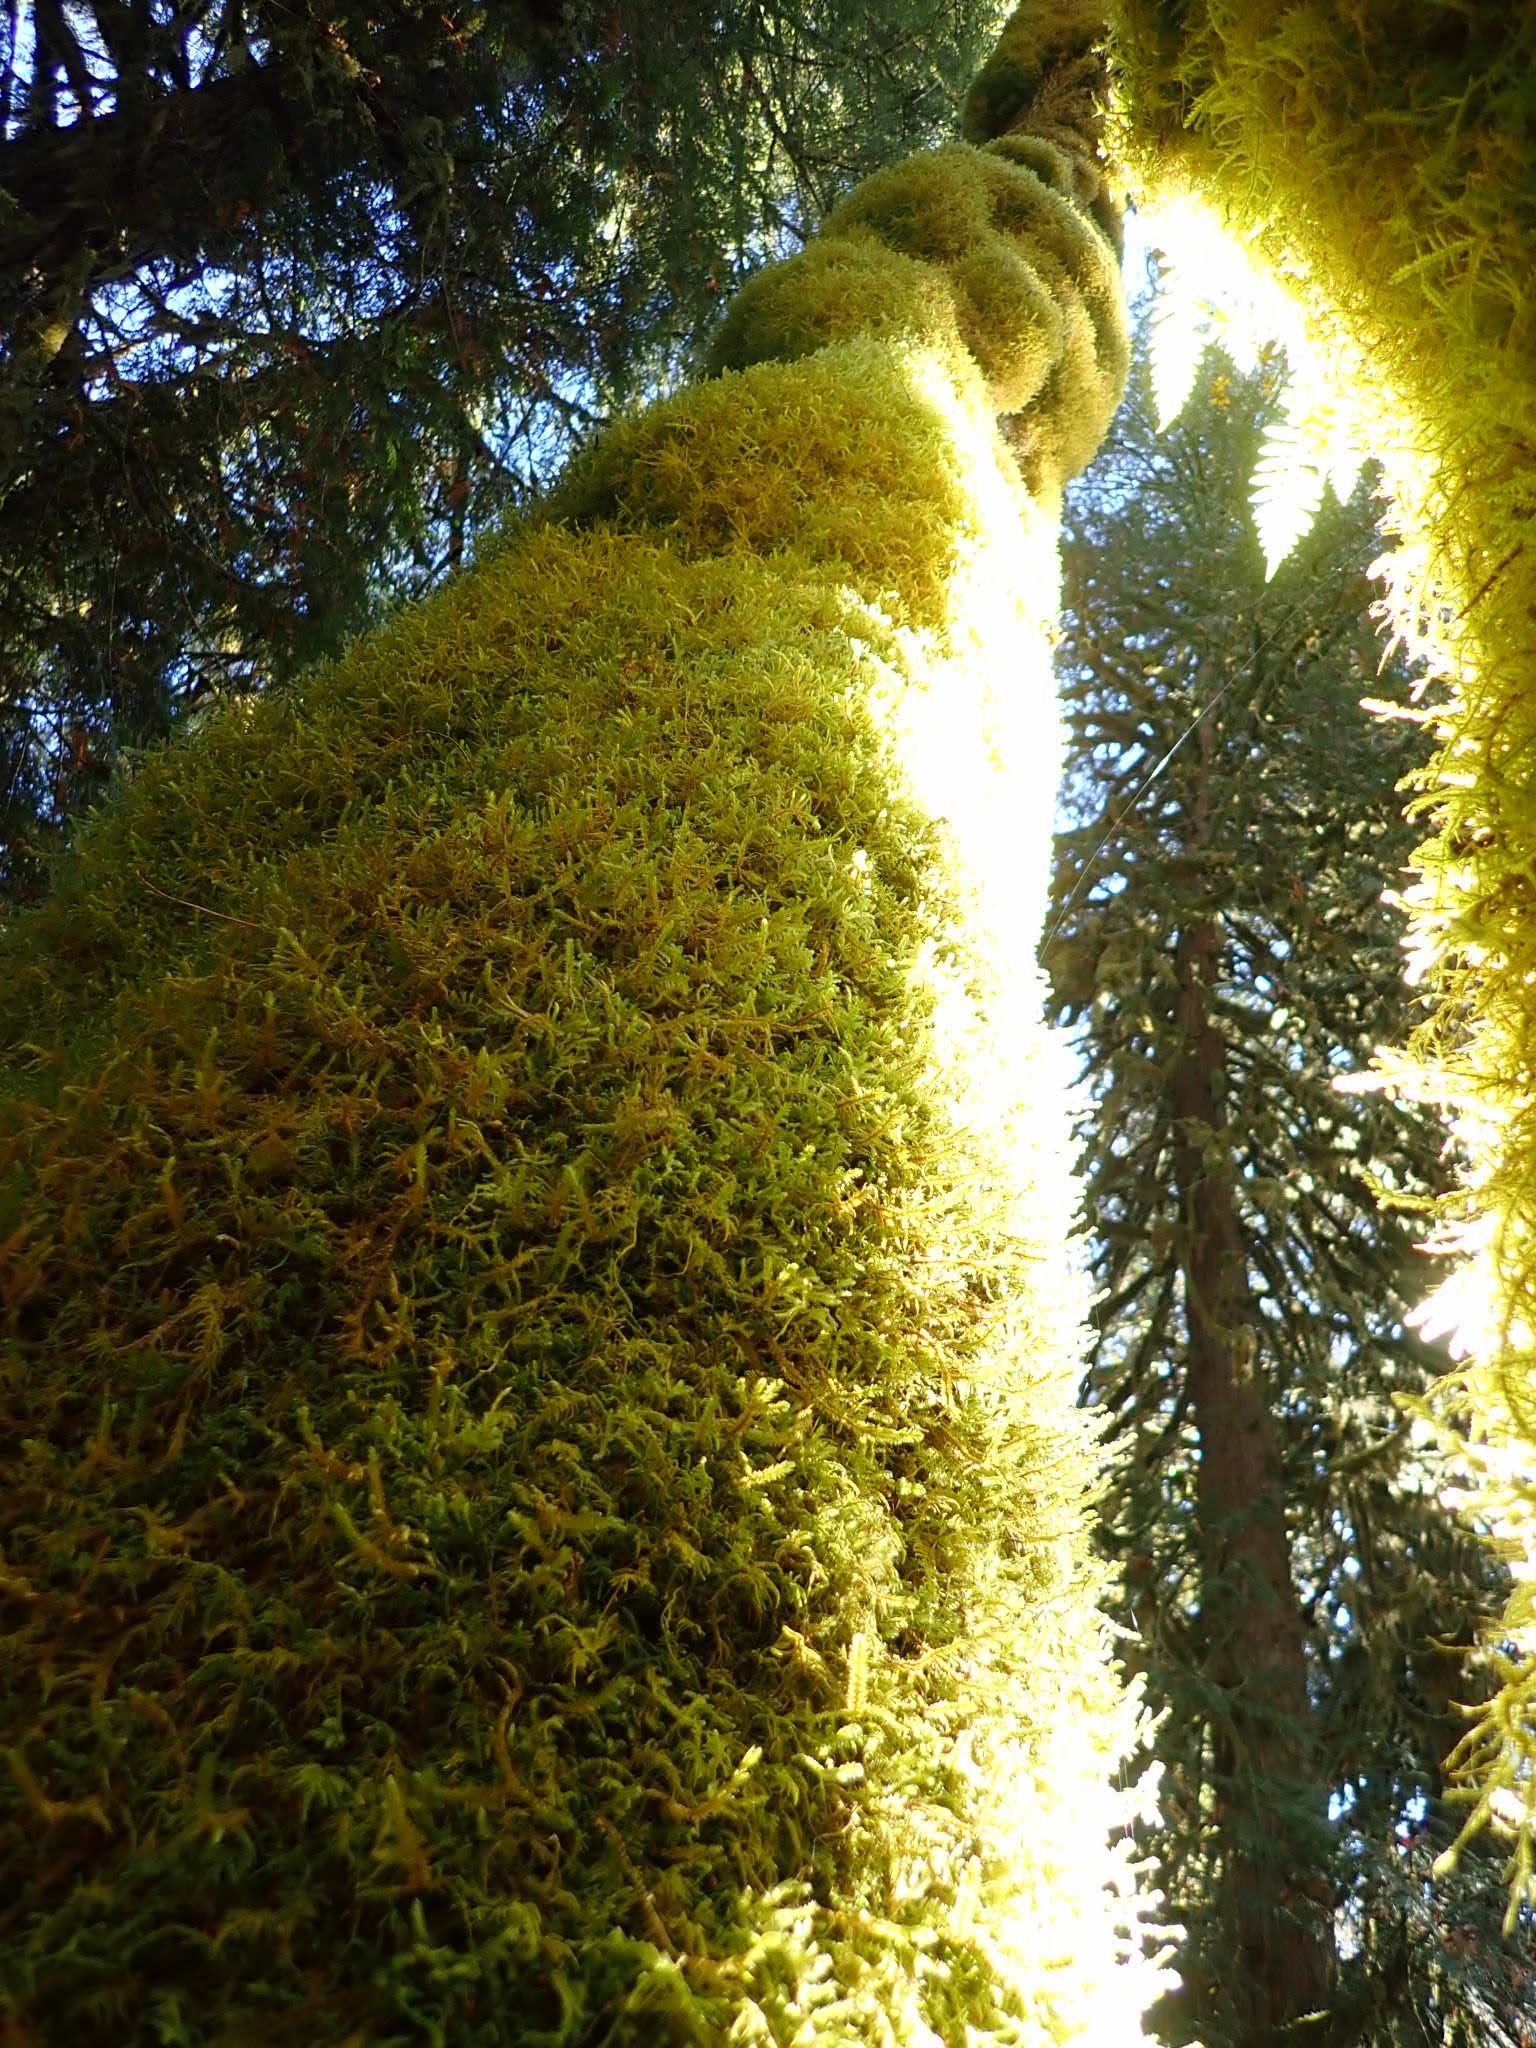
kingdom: Plantae
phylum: Bryophyta
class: Bryopsida
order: Hypnales
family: Neckeraceae
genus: Neckera
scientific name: Neckera douglasii
